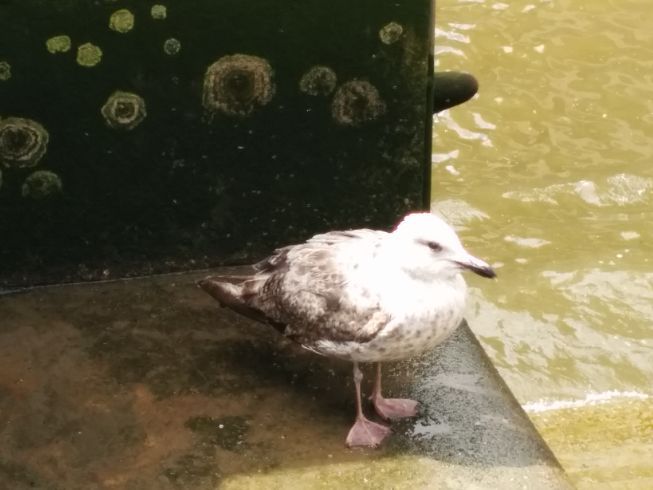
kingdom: Animalia
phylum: Chordata
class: Aves
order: Charadriiformes
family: Laridae
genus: Larus
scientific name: Larus argentatus
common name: Herring gull
